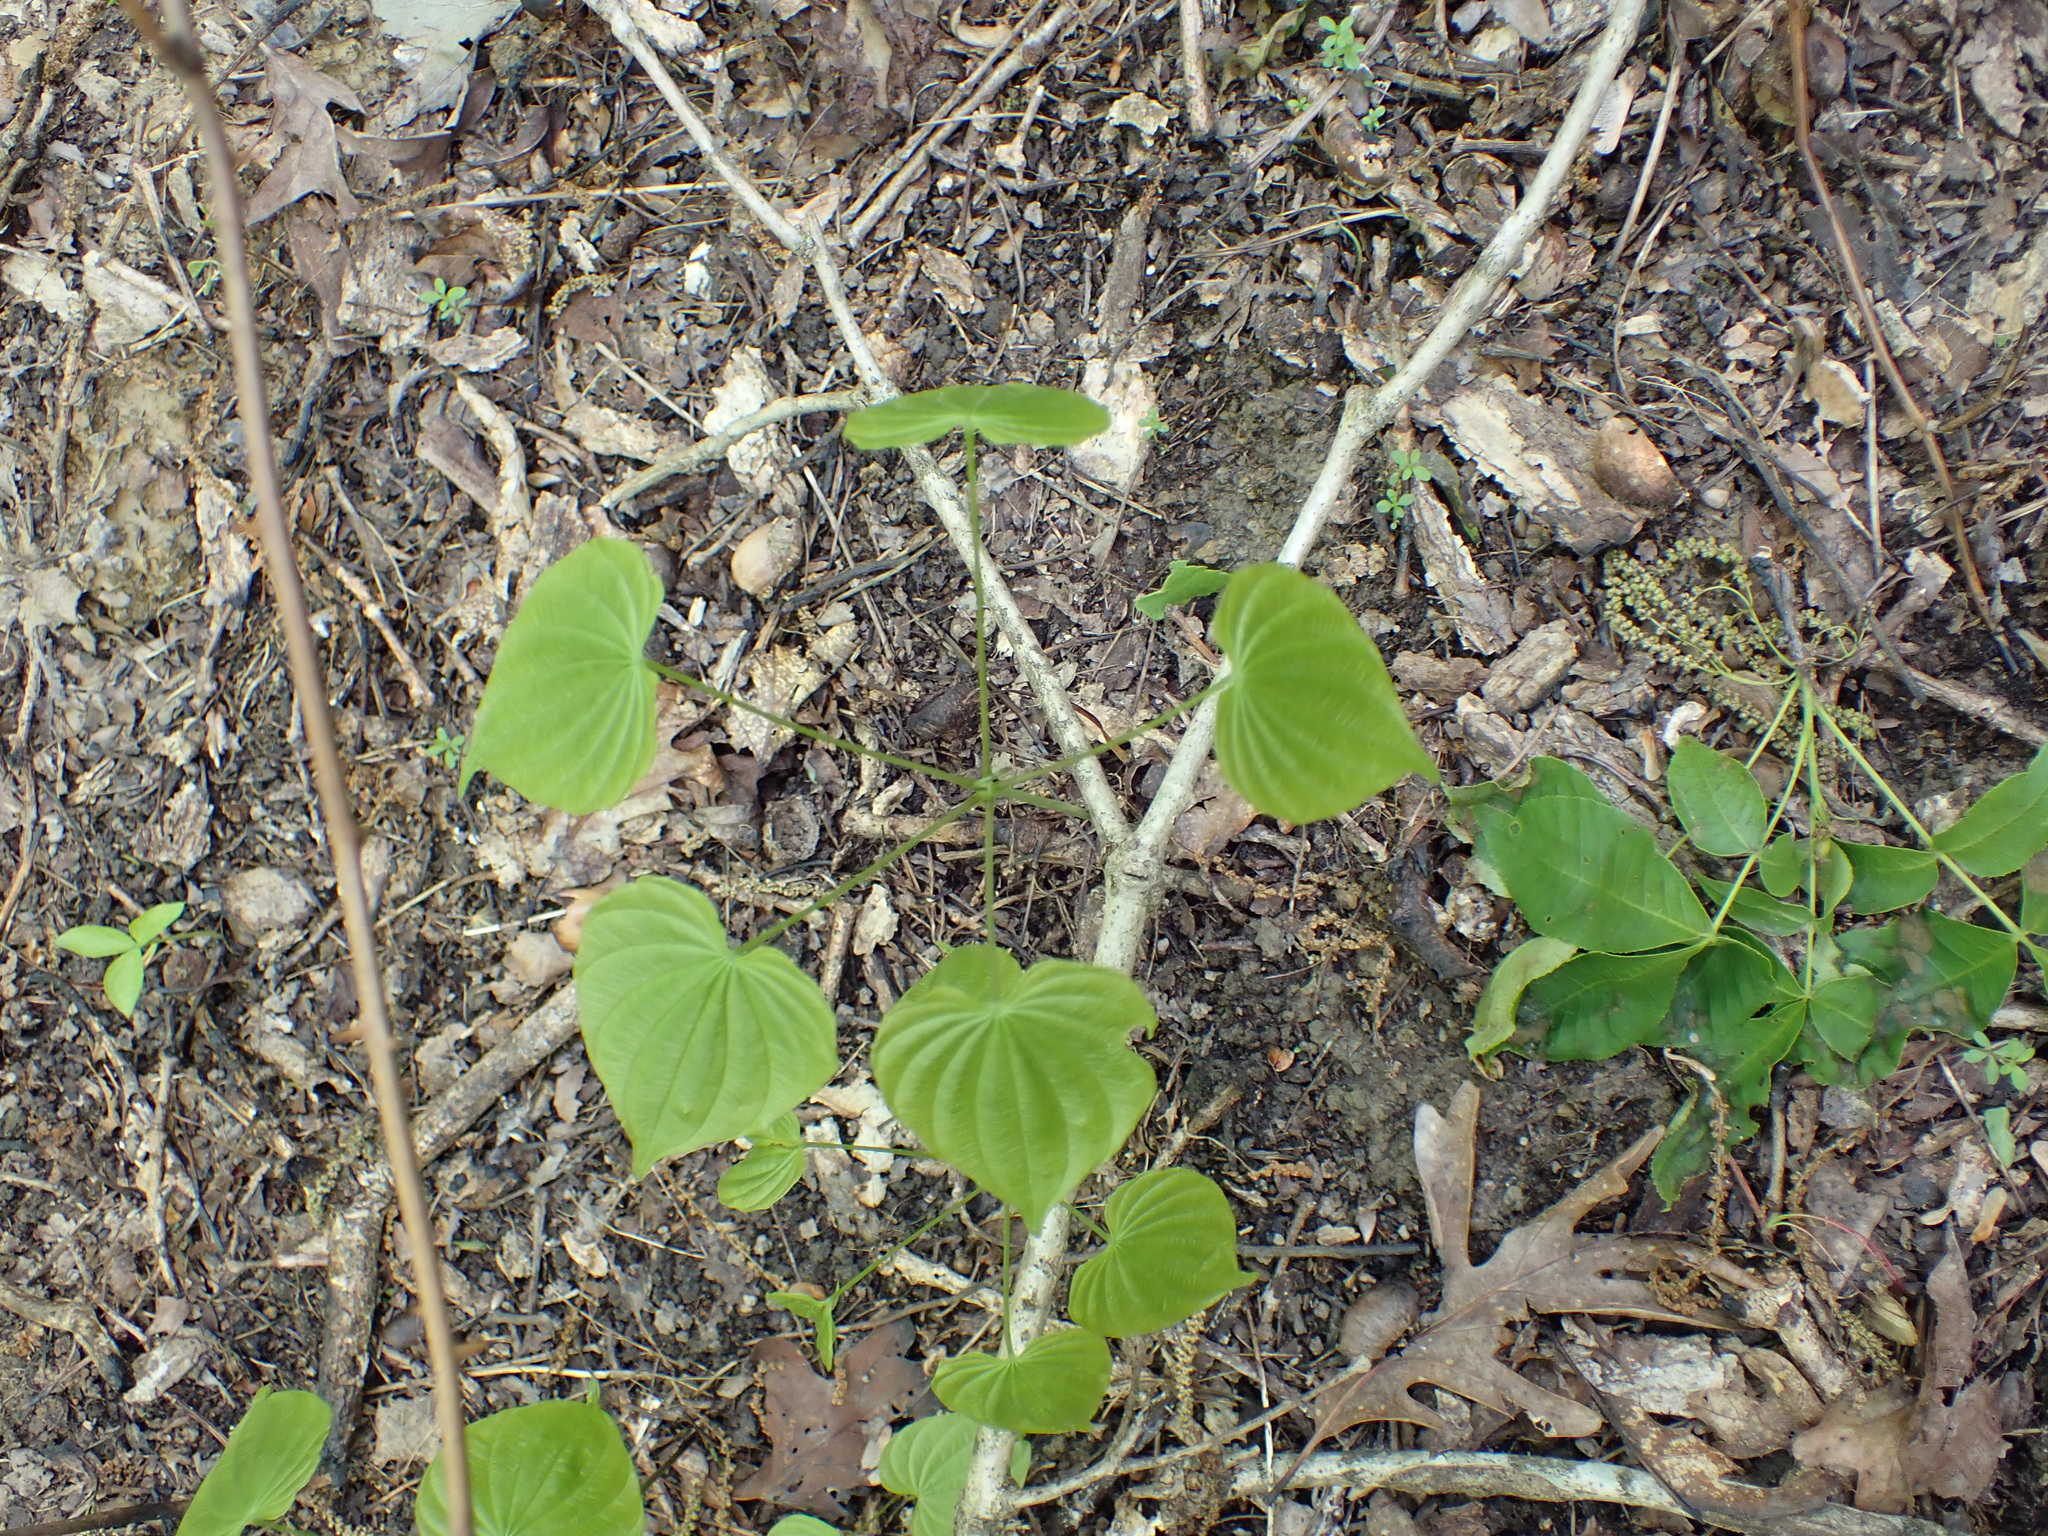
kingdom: Plantae
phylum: Tracheophyta
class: Liliopsida
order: Dioscoreales
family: Dioscoreaceae
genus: Dioscorea
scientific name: Dioscorea villosa
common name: Wild yam
